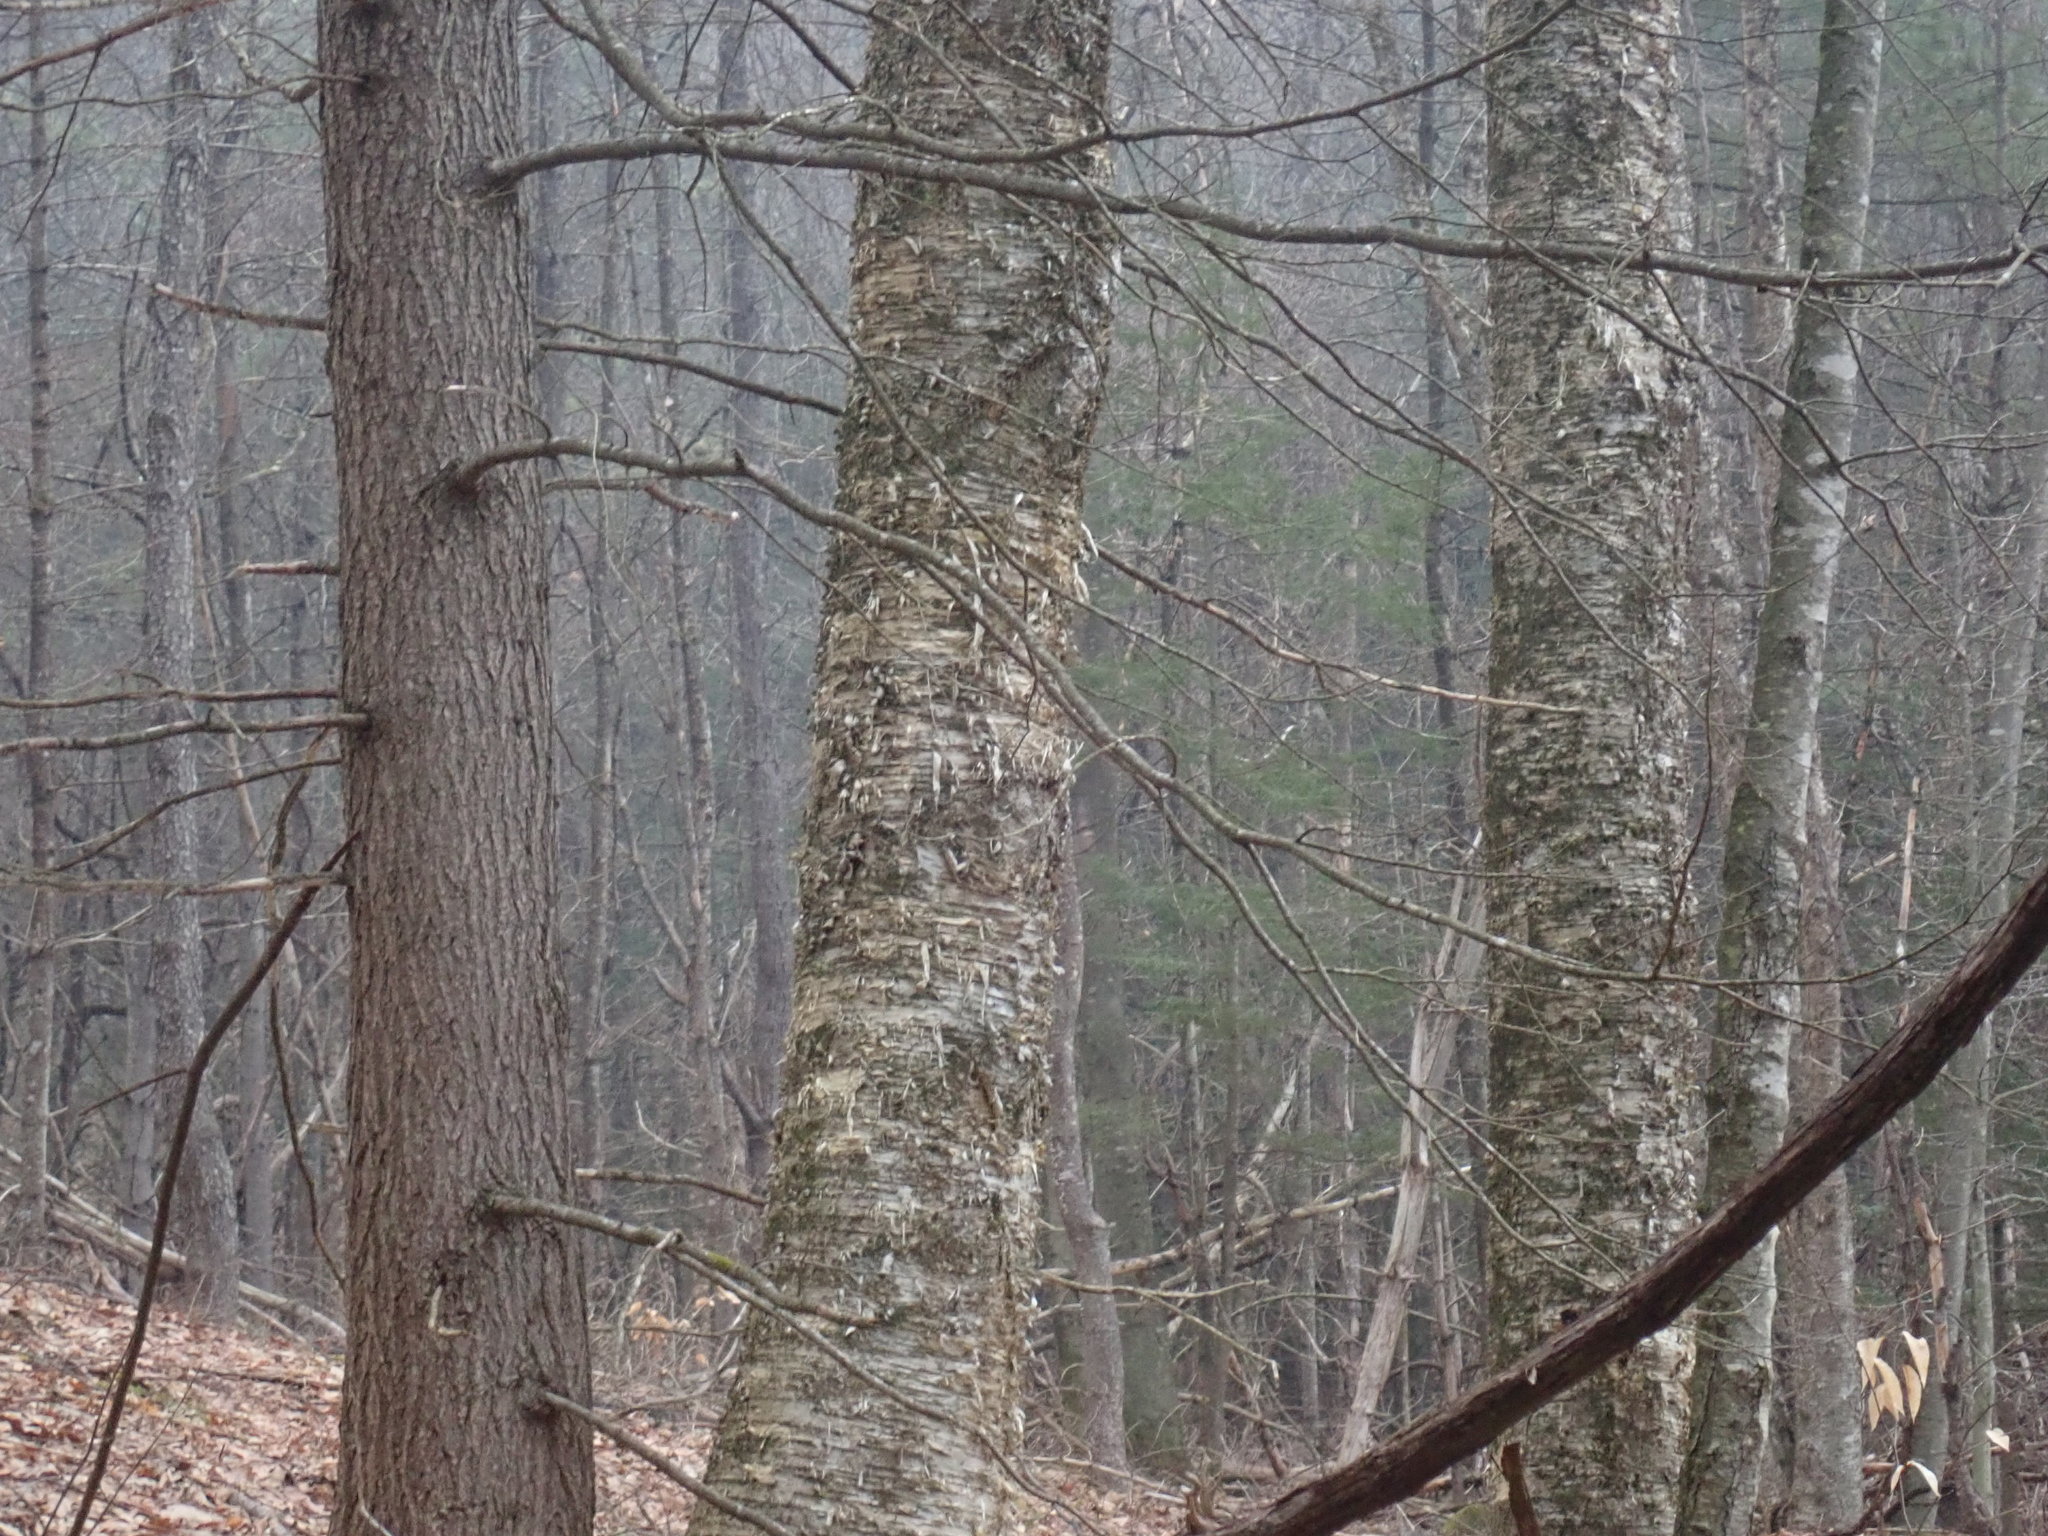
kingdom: Plantae
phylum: Tracheophyta
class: Magnoliopsida
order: Fagales
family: Betulaceae
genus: Betula
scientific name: Betula alleghaniensis
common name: Yellow birch
